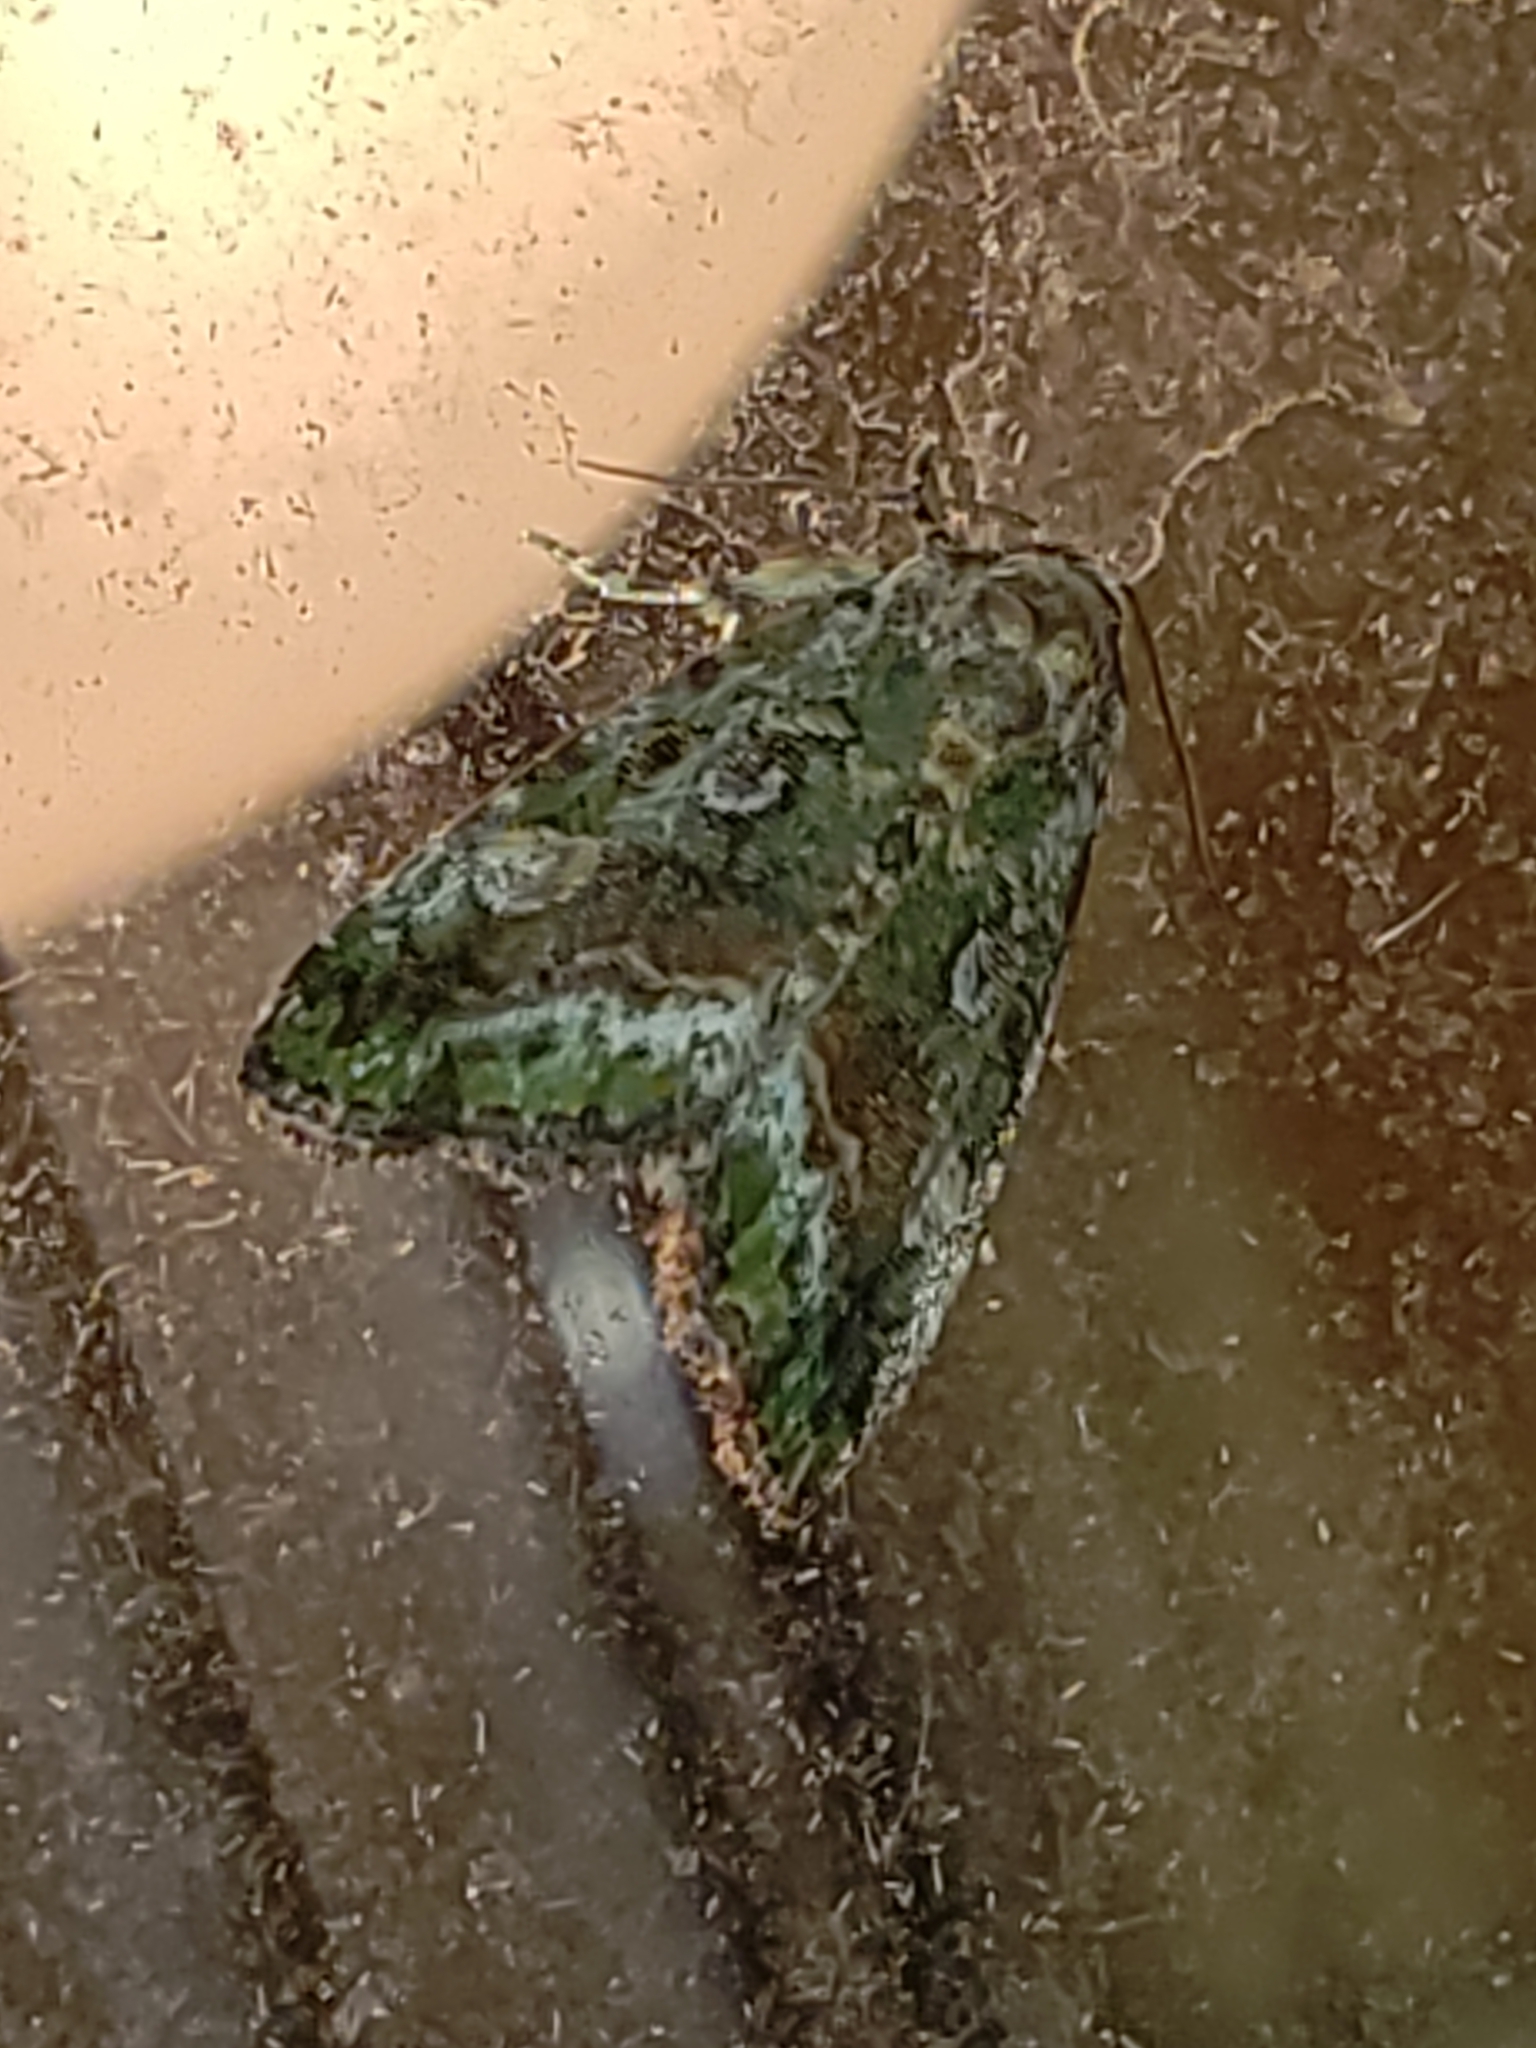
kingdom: Animalia
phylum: Arthropoda
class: Insecta
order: Lepidoptera
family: Noctuidae
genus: Lithacodia
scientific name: Lithacodia musta
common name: Small mossy glyph
